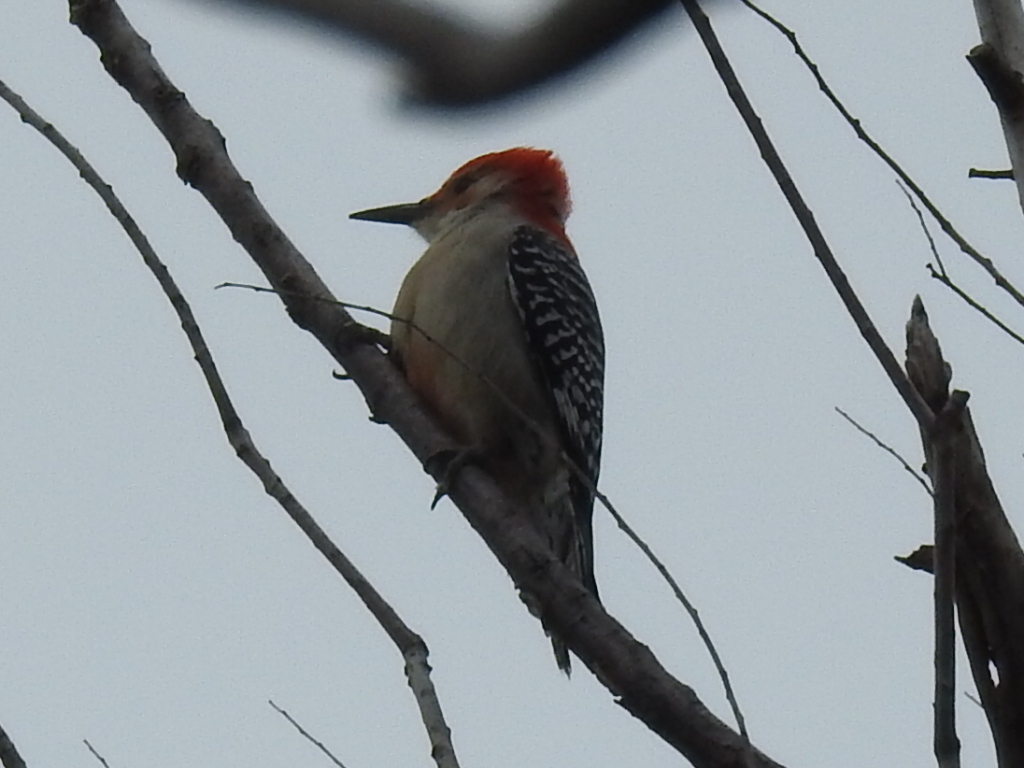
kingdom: Animalia
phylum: Chordata
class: Aves
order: Piciformes
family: Picidae
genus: Melanerpes
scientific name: Melanerpes carolinus
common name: Red-bellied woodpecker
